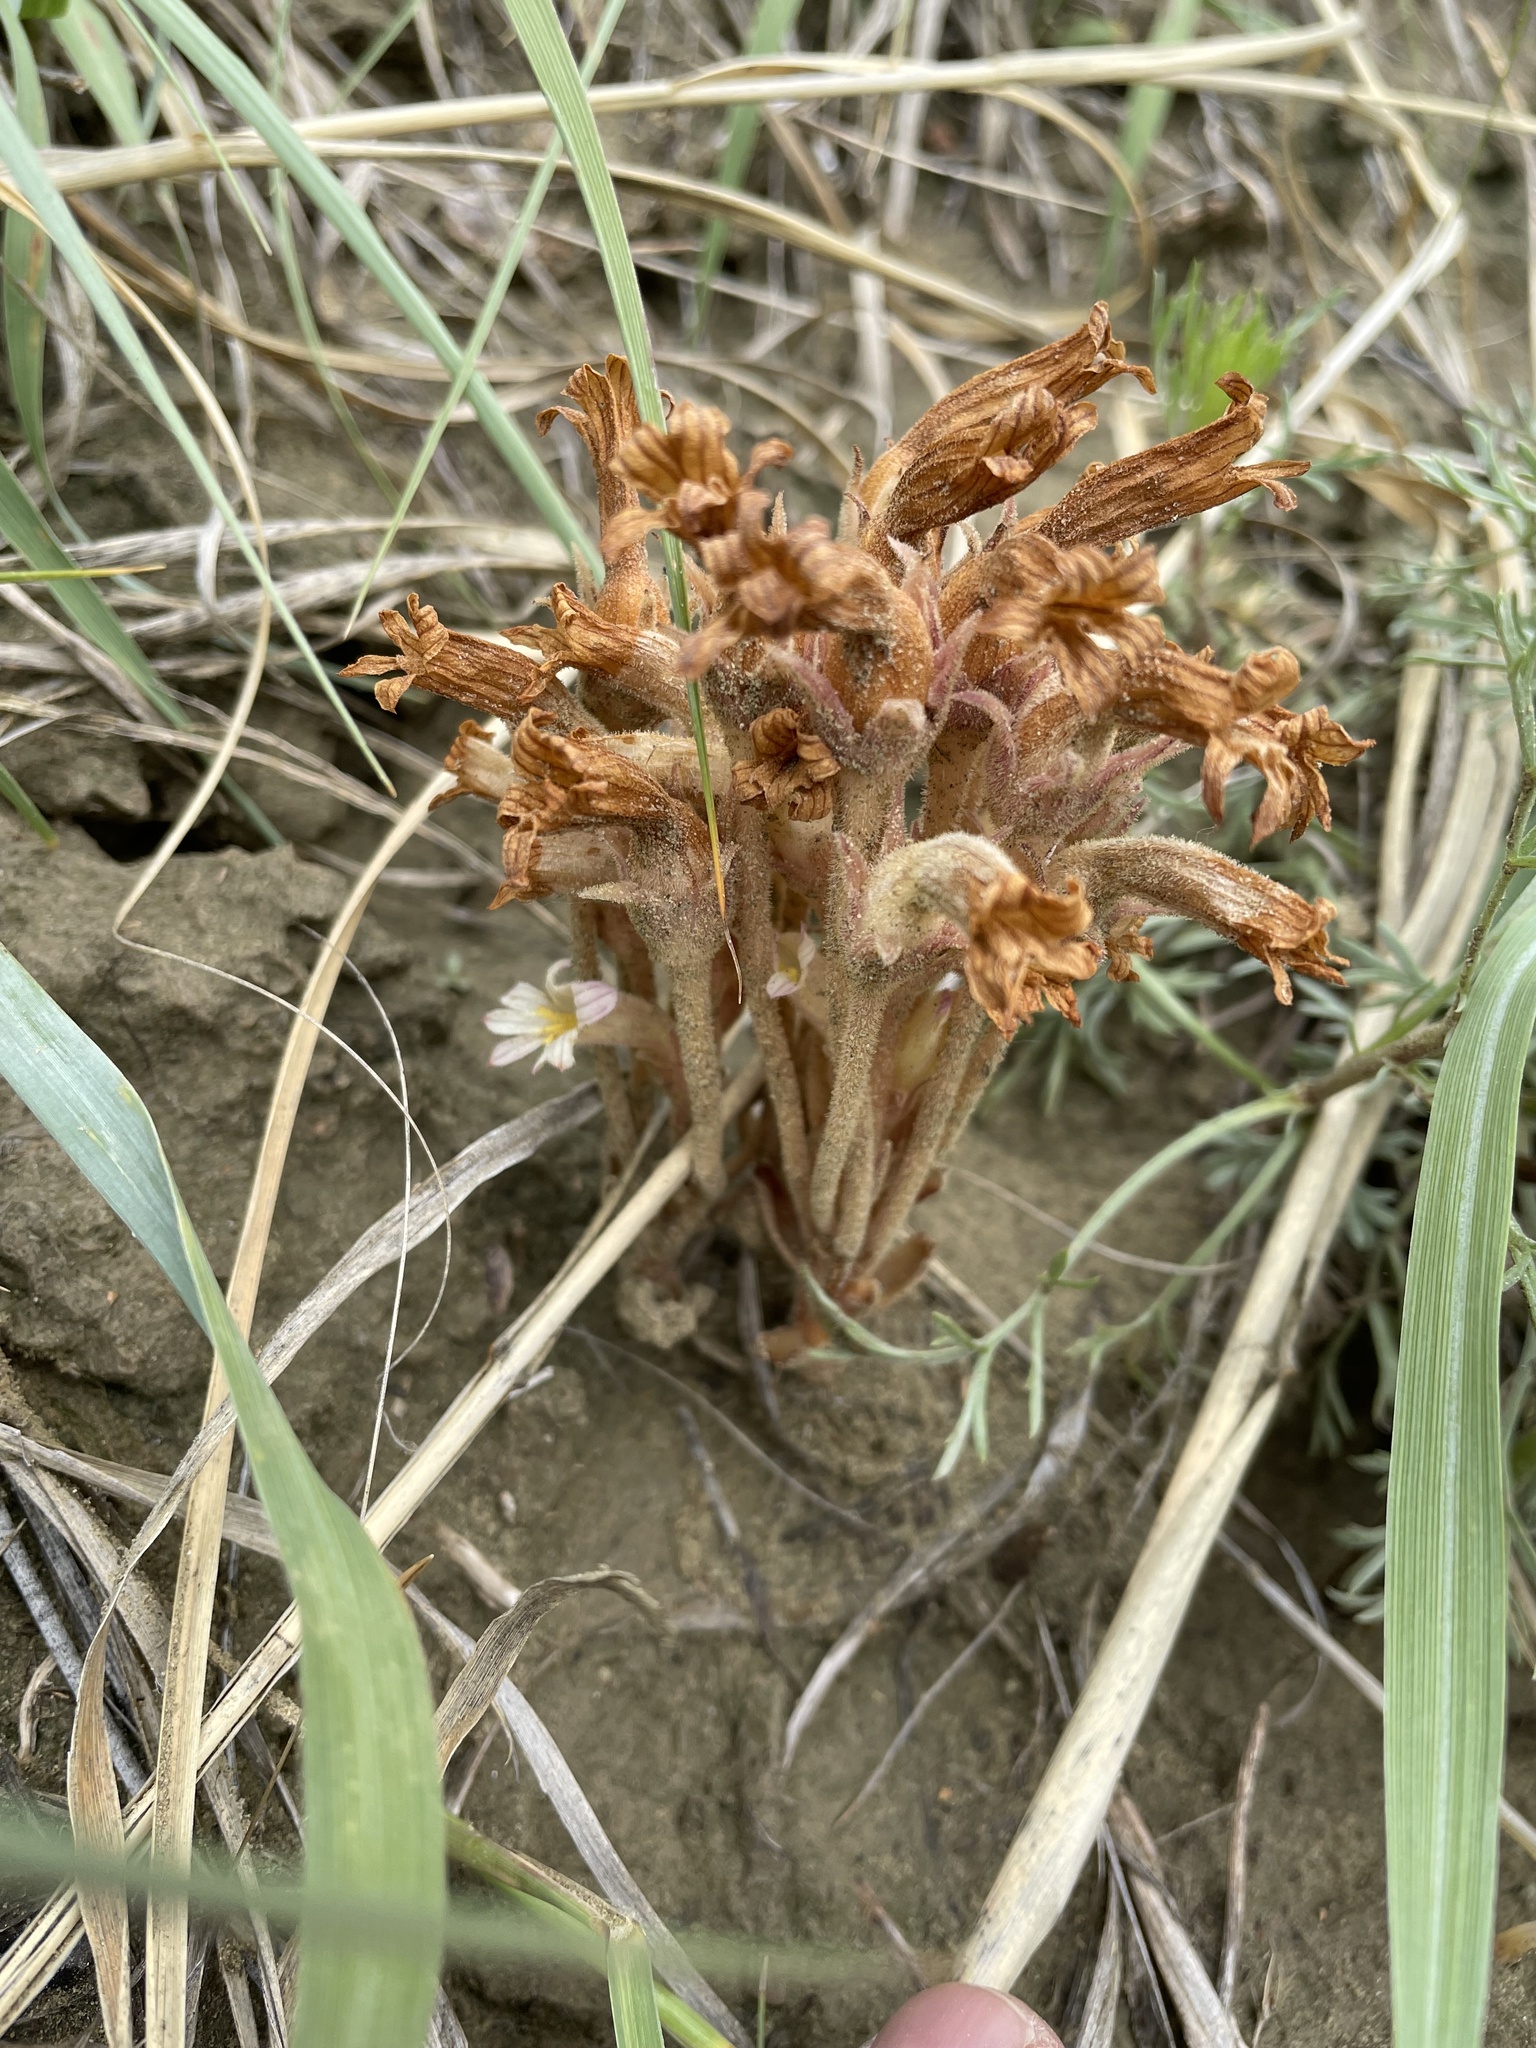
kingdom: Plantae
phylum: Tracheophyta
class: Magnoliopsida
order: Lamiales
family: Orobanchaceae
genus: Aphyllon
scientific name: Aphyllon fasciculatum
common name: Clustered broomrape
